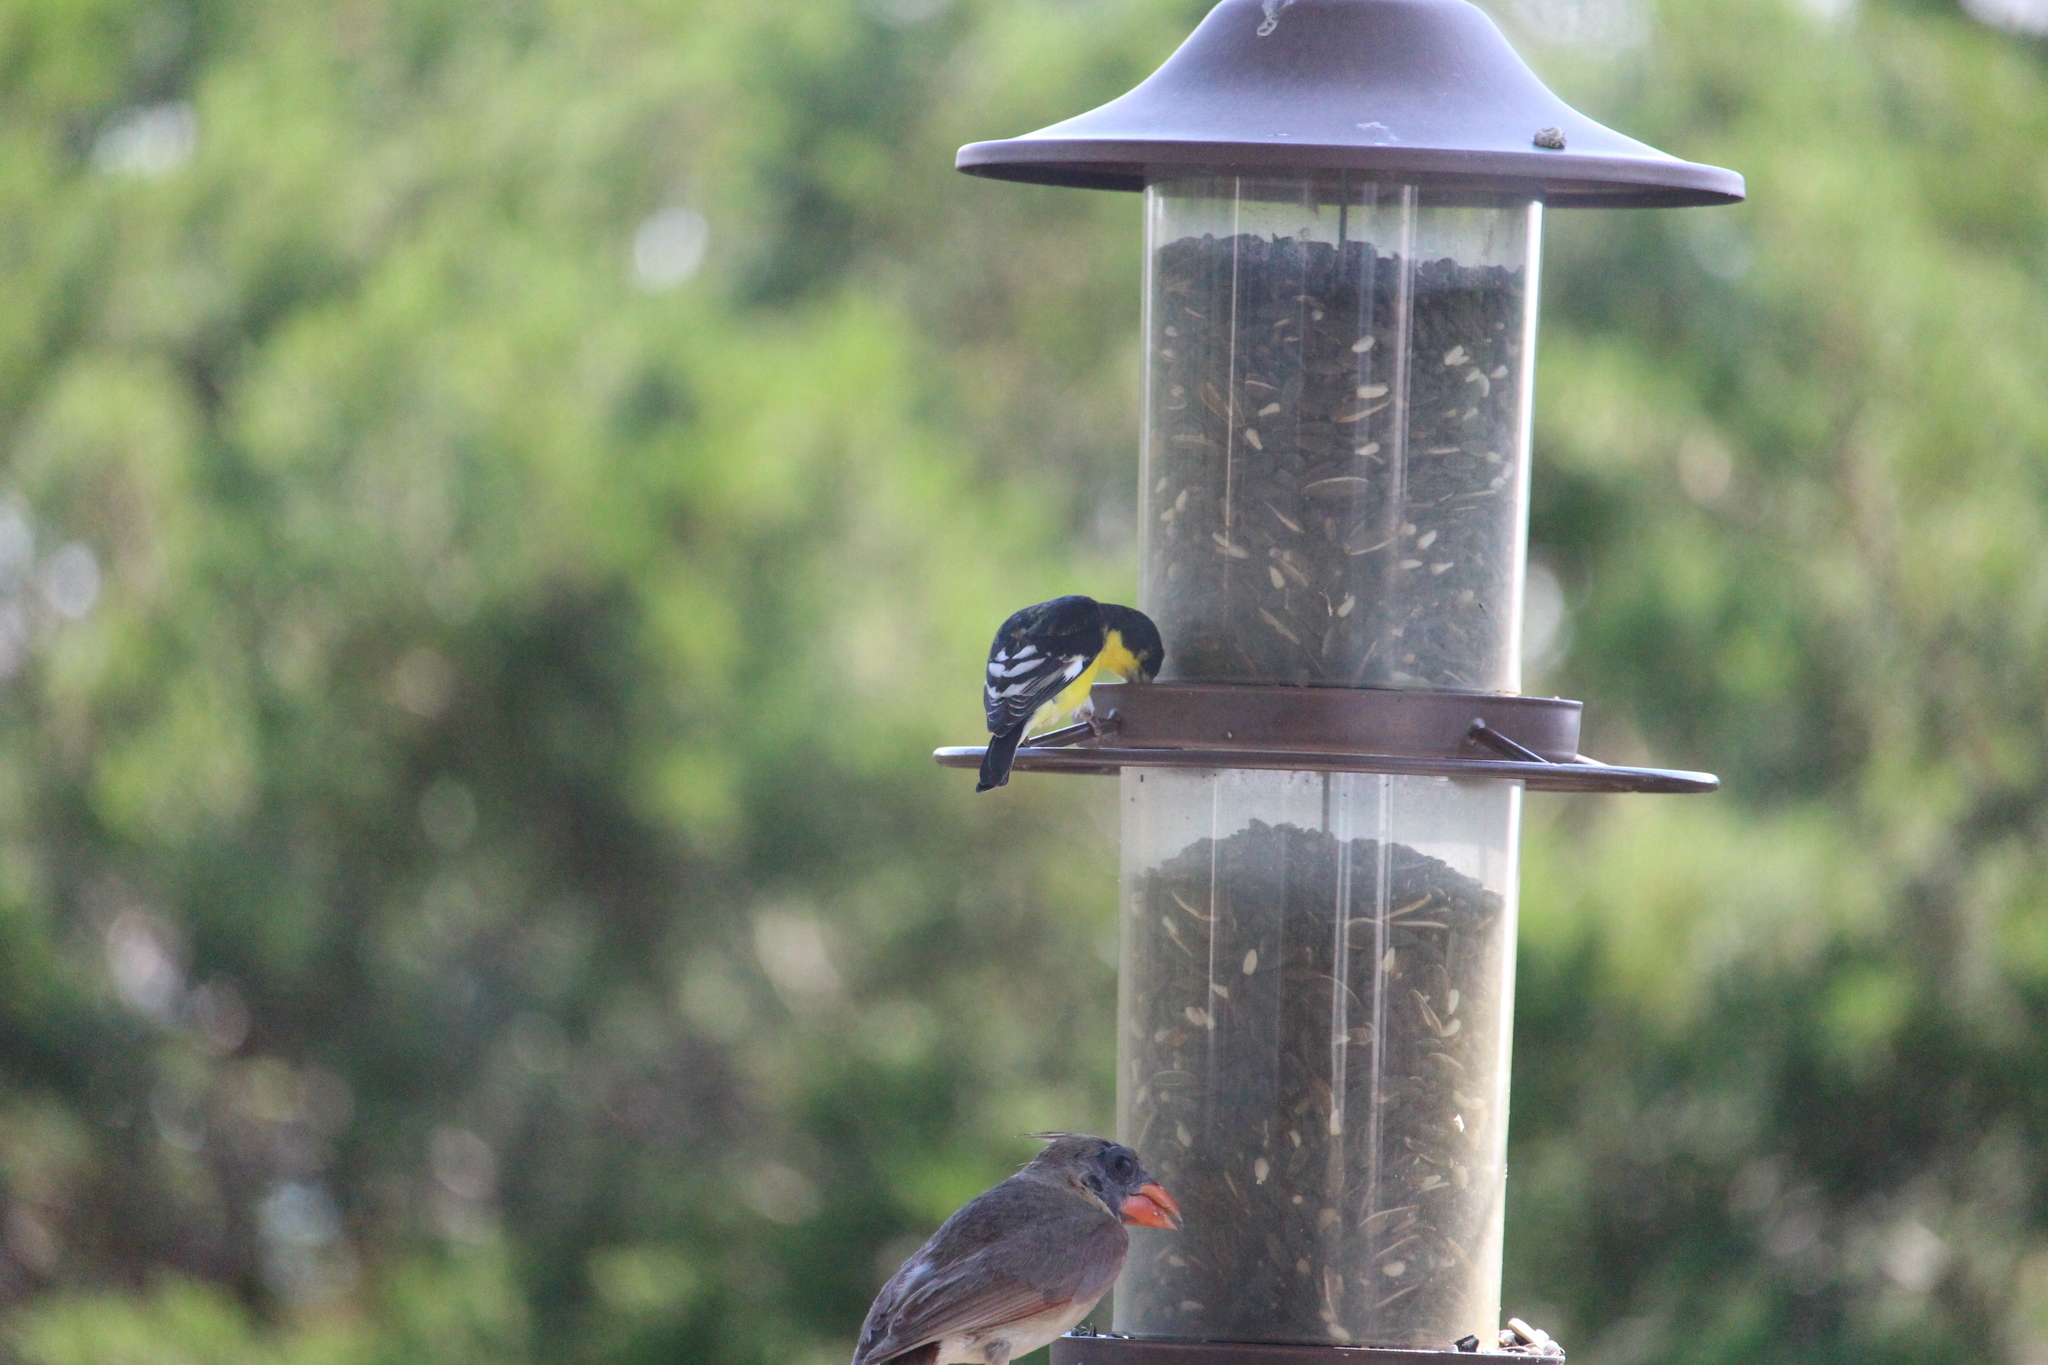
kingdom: Animalia
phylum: Chordata
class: Aves
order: Passeriformes
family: Fringillidae
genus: Spinus
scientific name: Spinus psaltria
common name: Lesser goldfinch
